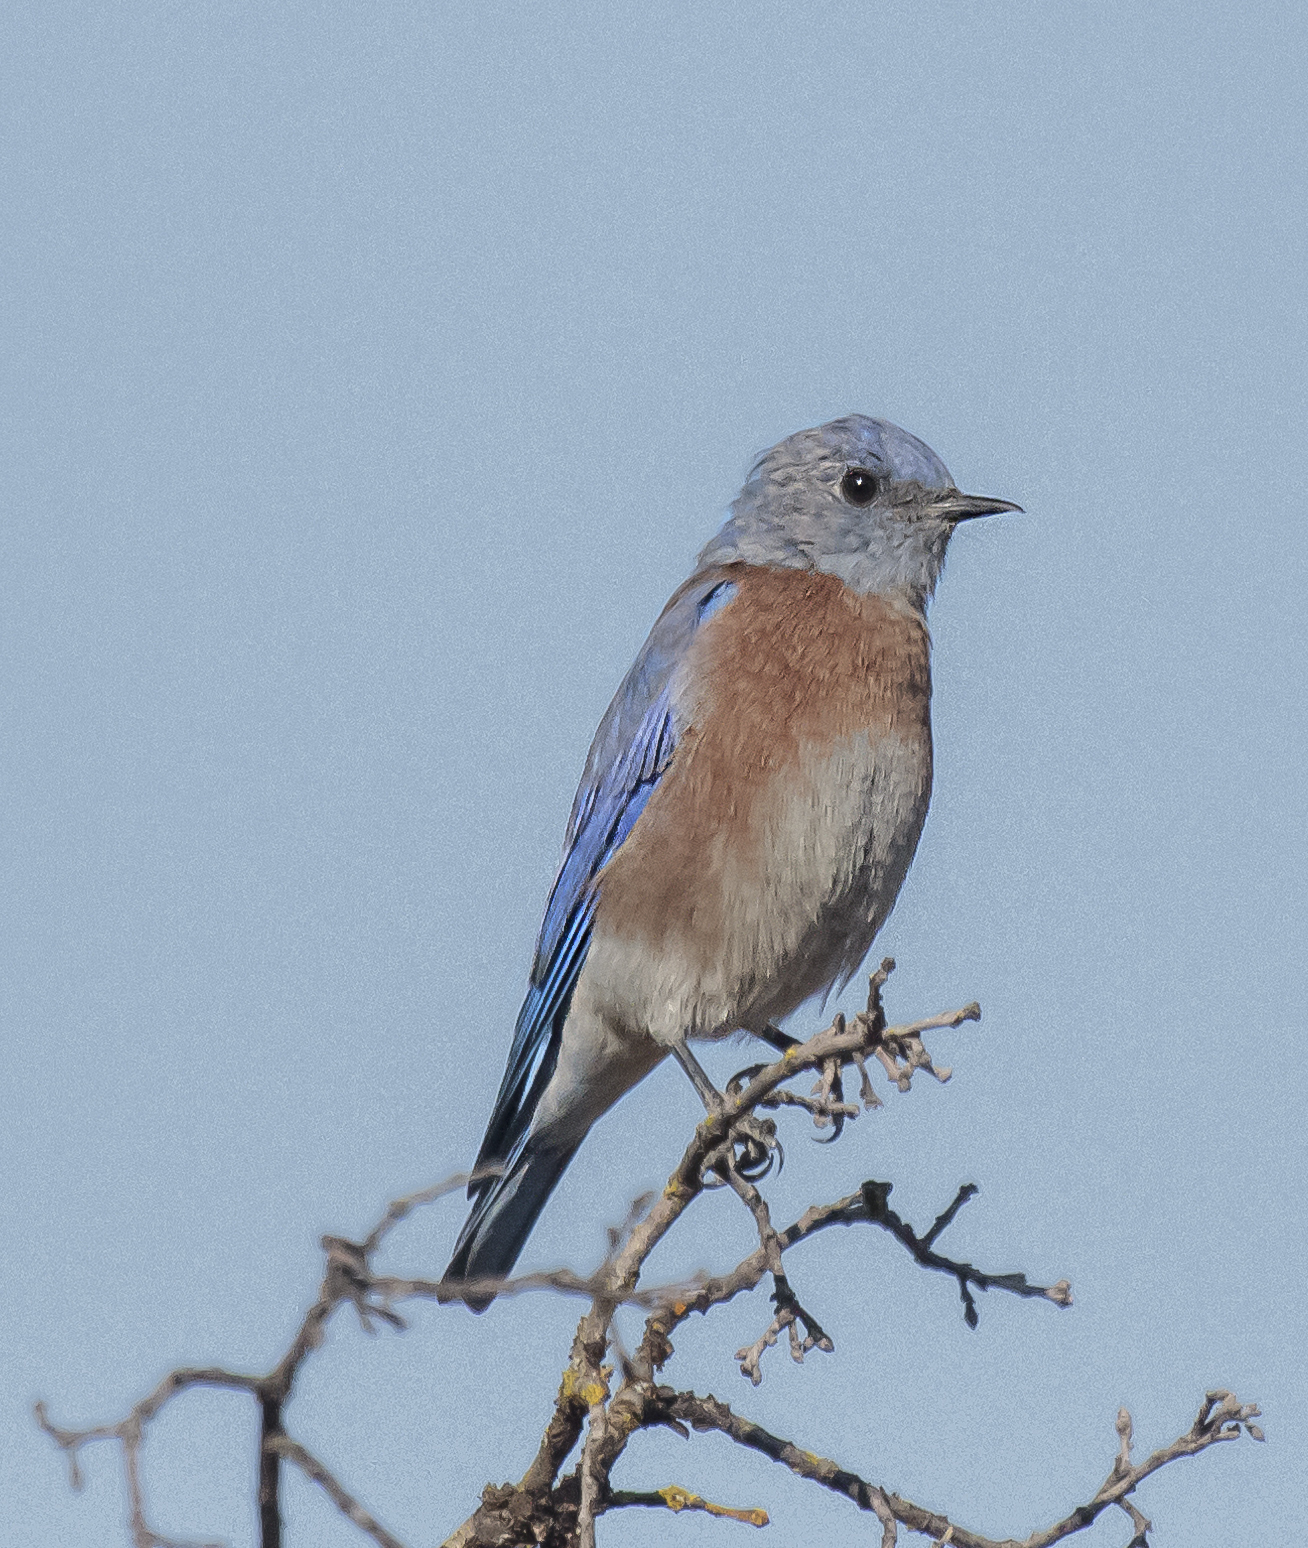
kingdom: Animalia
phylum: Chordata
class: Aves
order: Passeriformes
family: Turdidae
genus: Sialia
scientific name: Sialia mexicana
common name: Western bluebird
